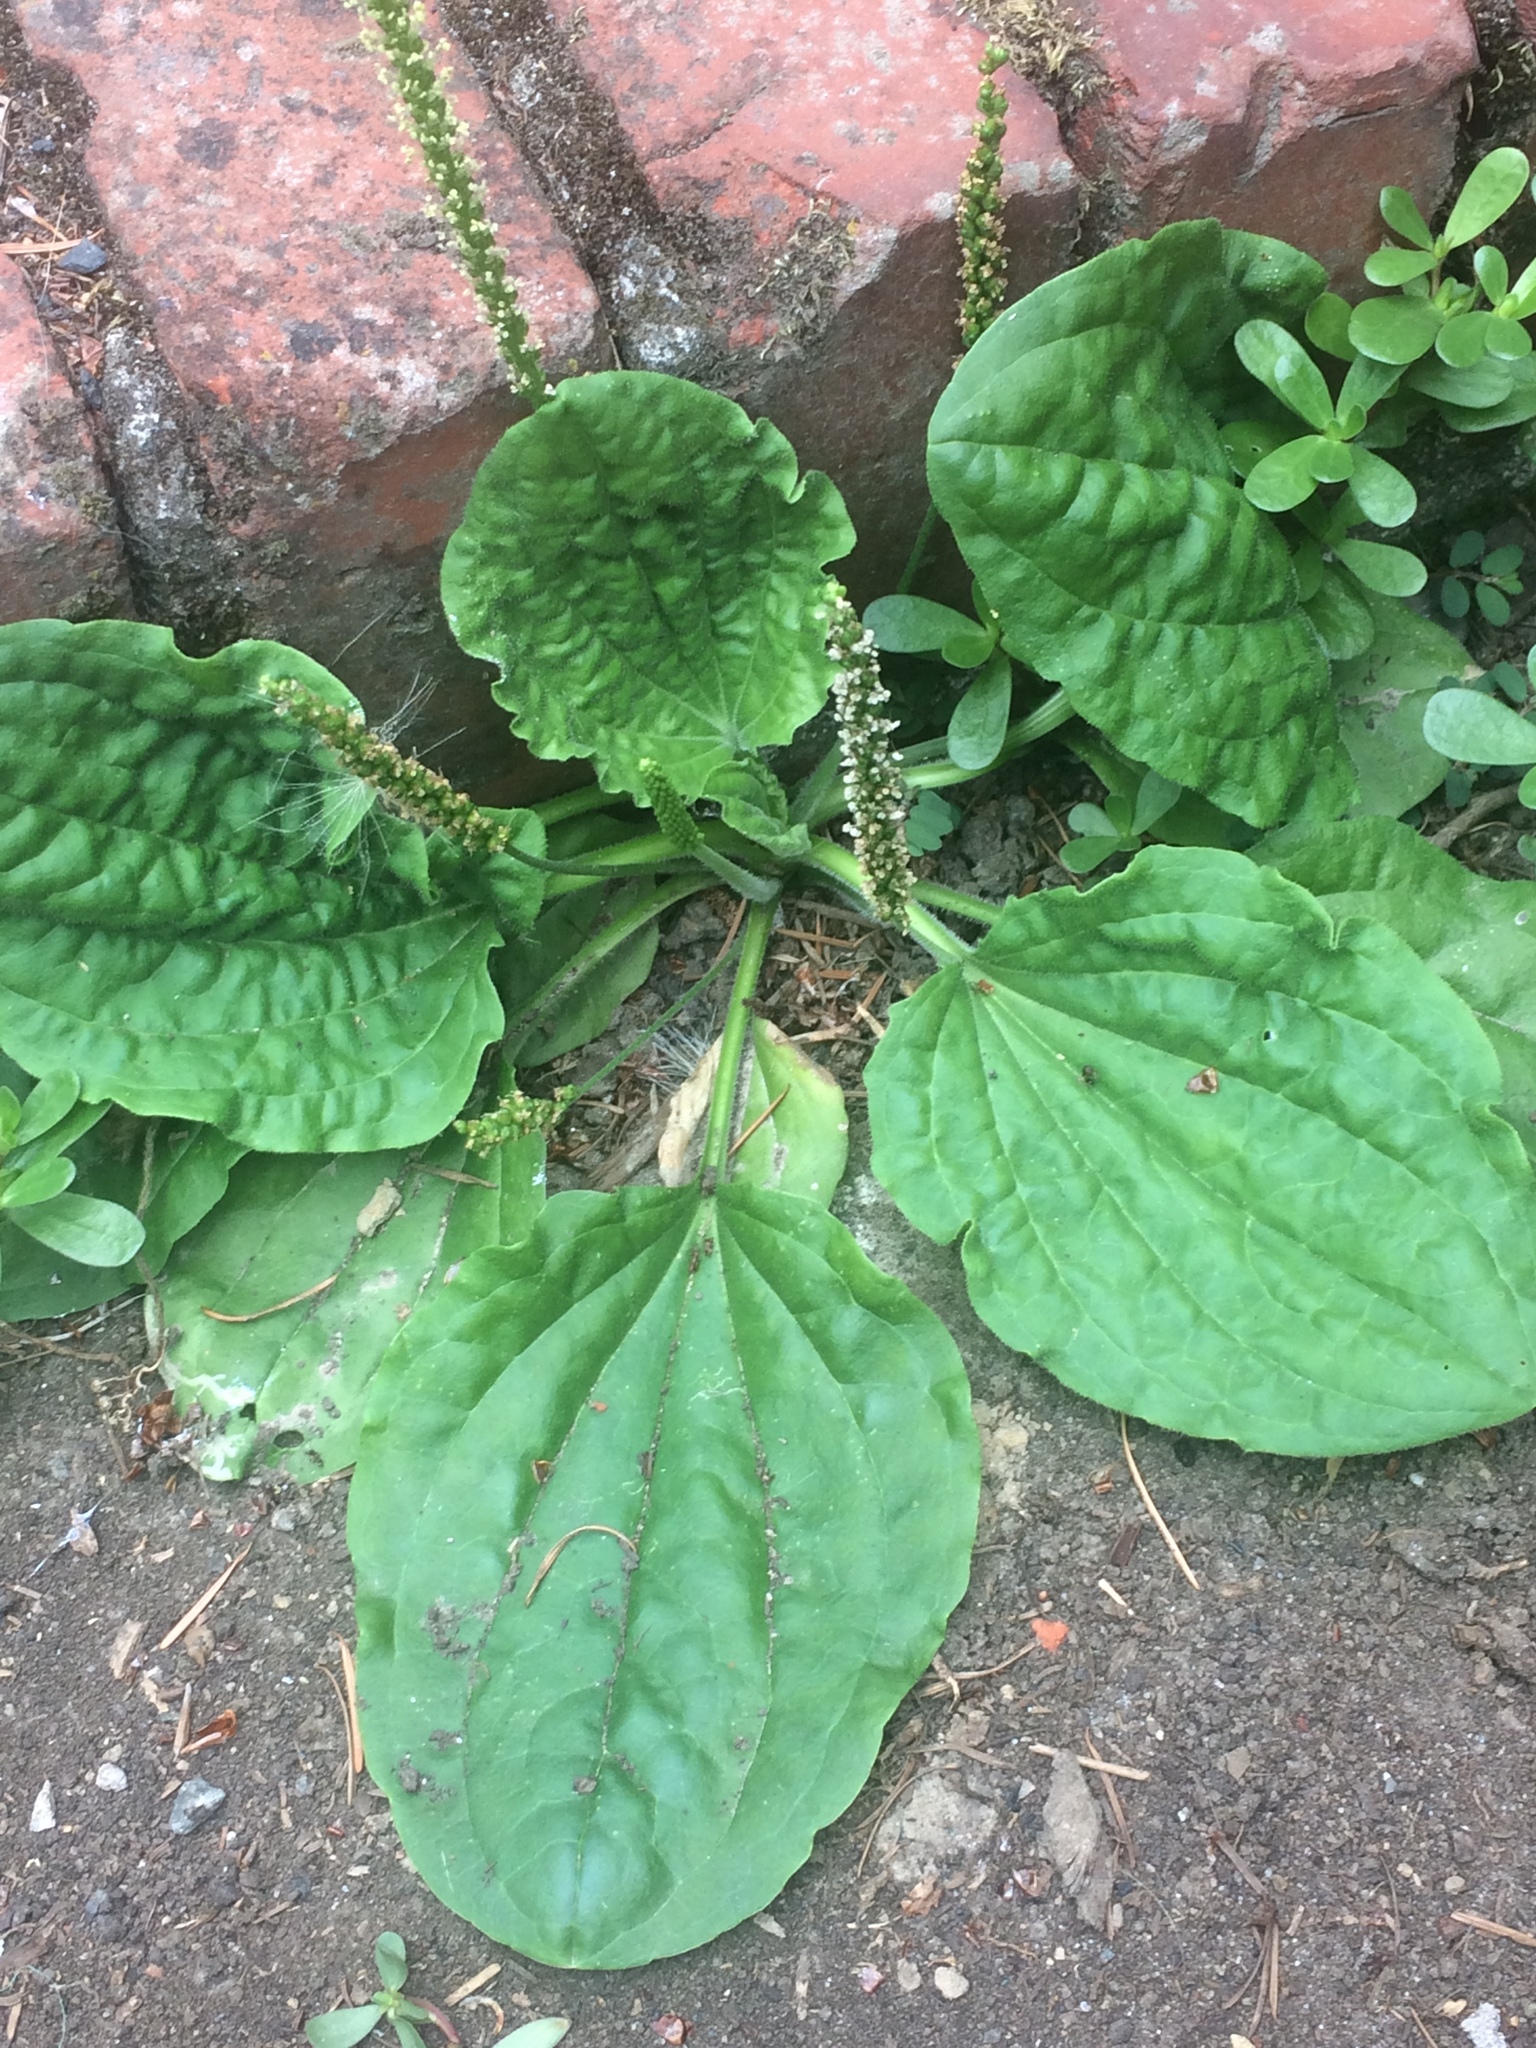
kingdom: Plantae
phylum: Tracheophyta
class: Magnoliopsida
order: Lamiales
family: Plantaginaceae
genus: Plantago
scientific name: Plantago major
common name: Common plantain
